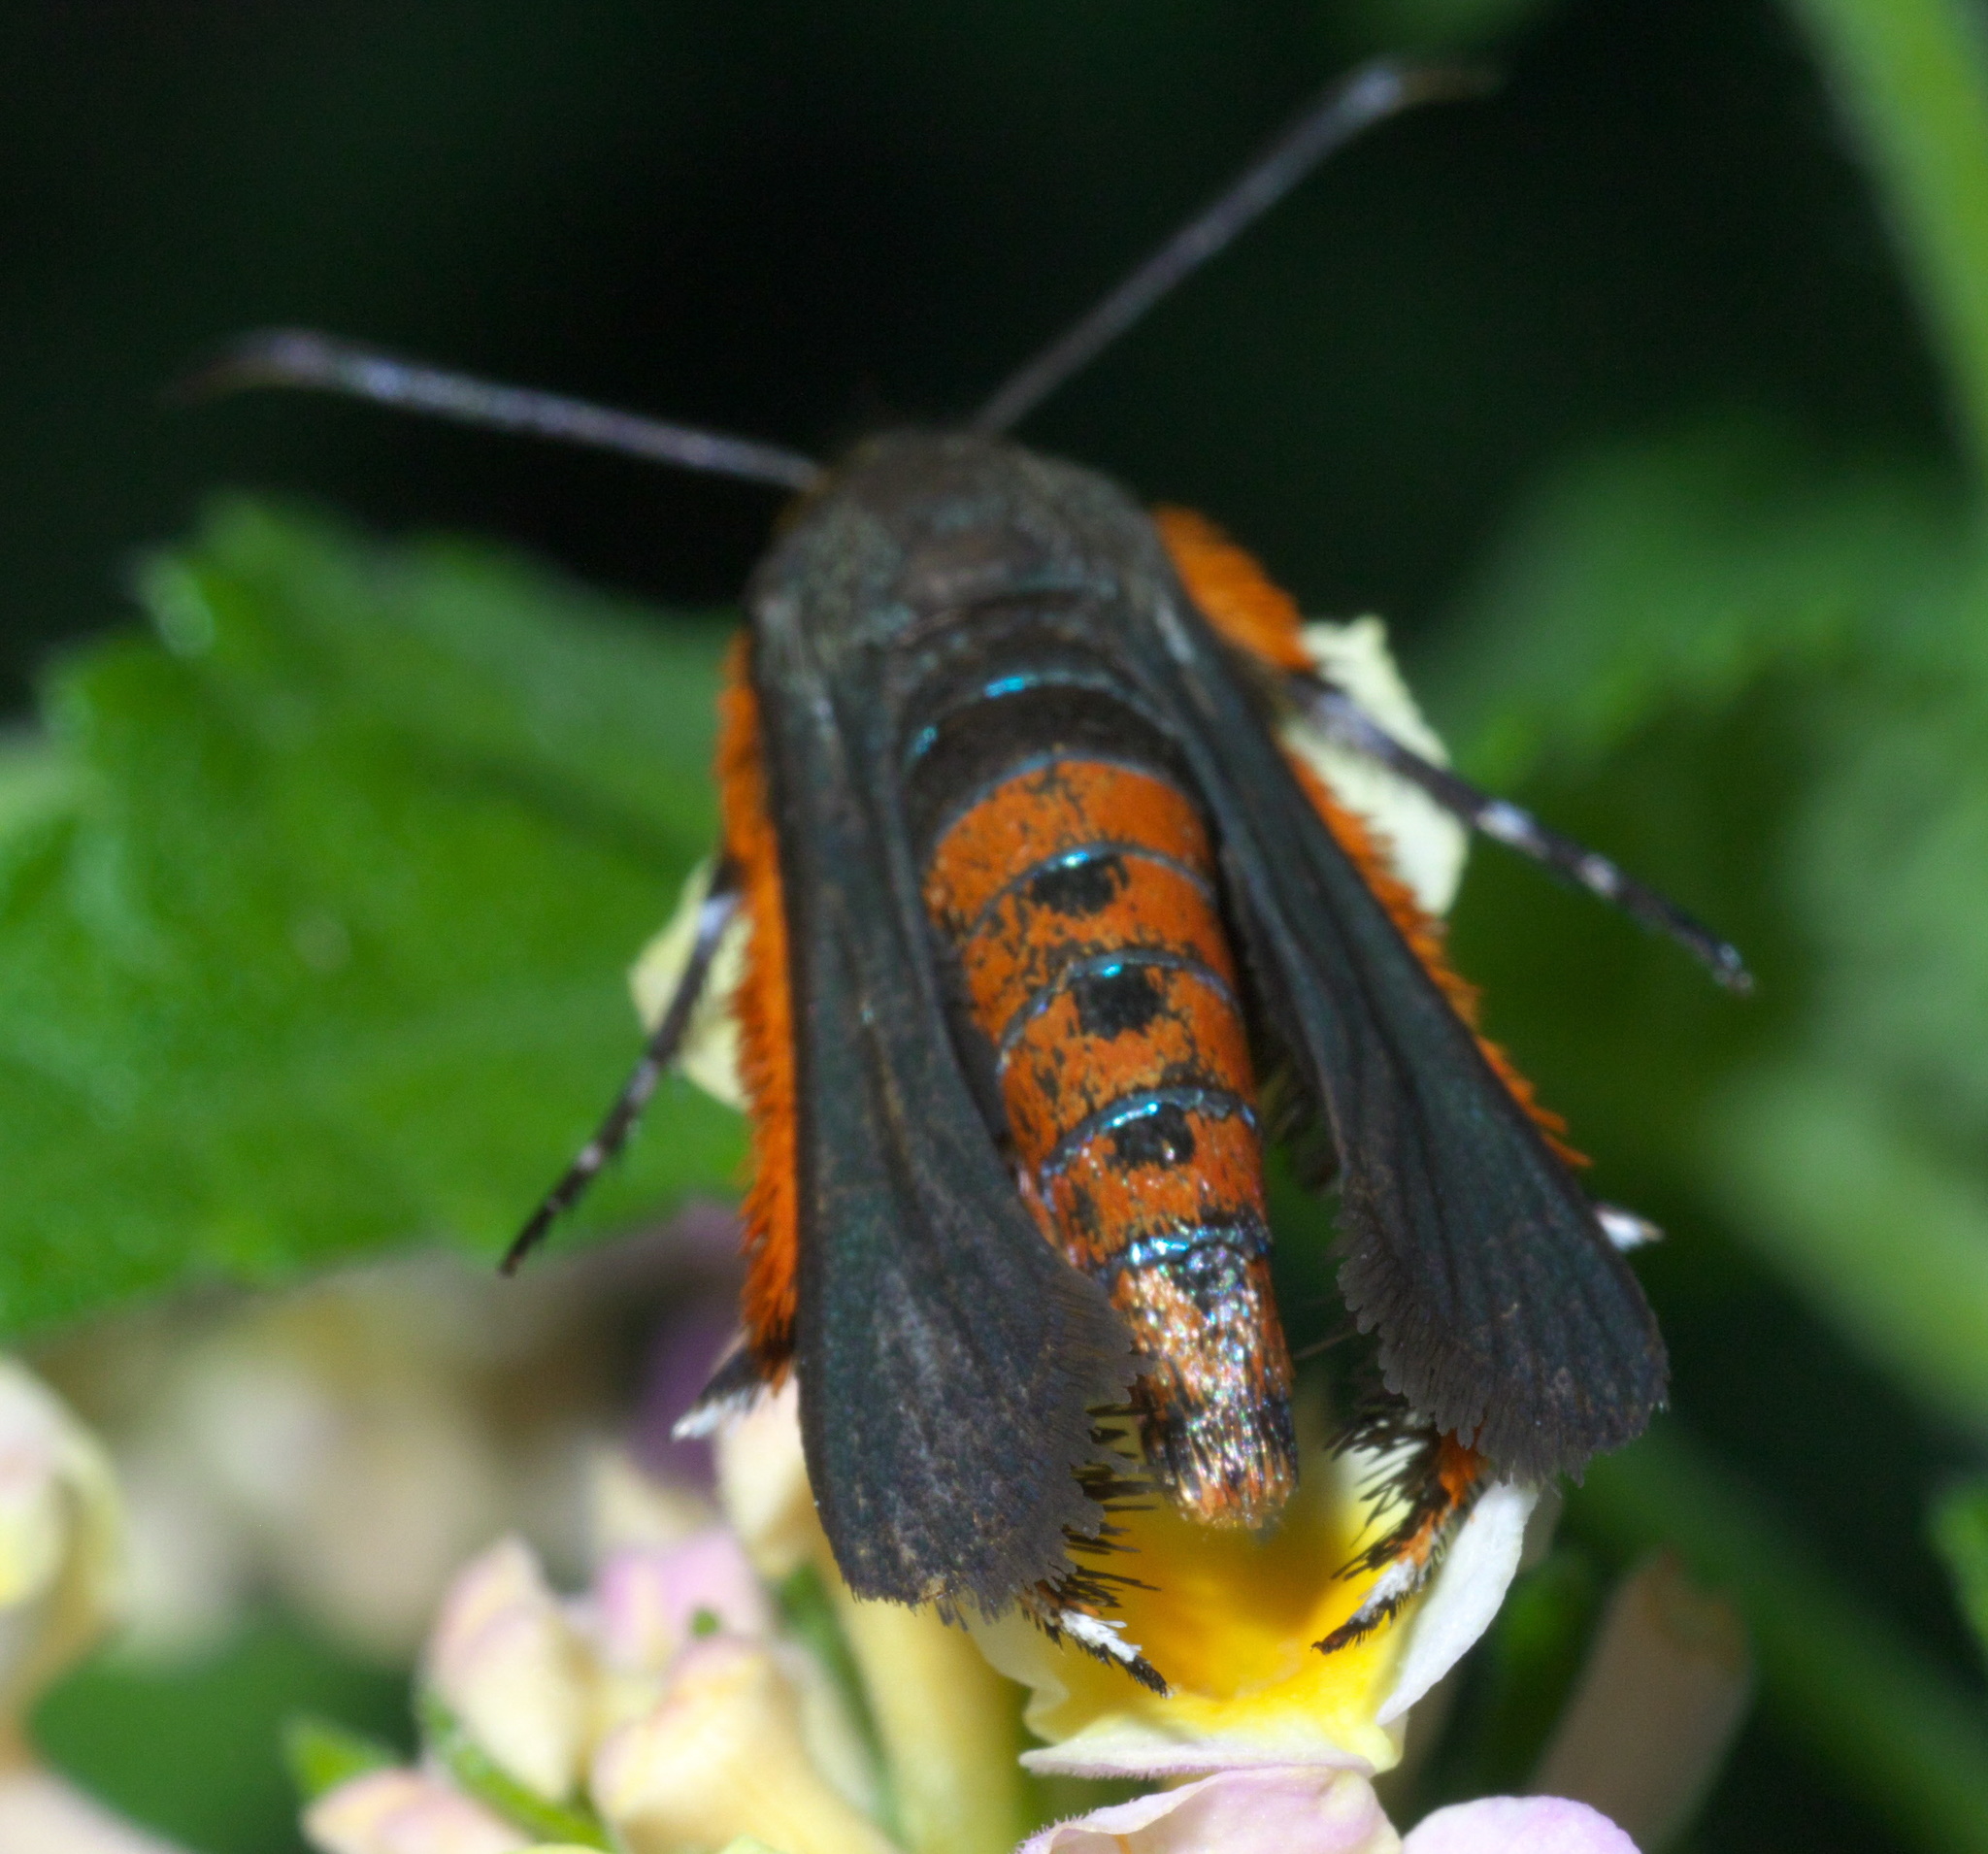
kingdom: Animalia
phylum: Arthropoda
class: Insecta
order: Lepidoptera
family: Sesiidae
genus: Eichlinia
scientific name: Eichlinia cucurbitae
